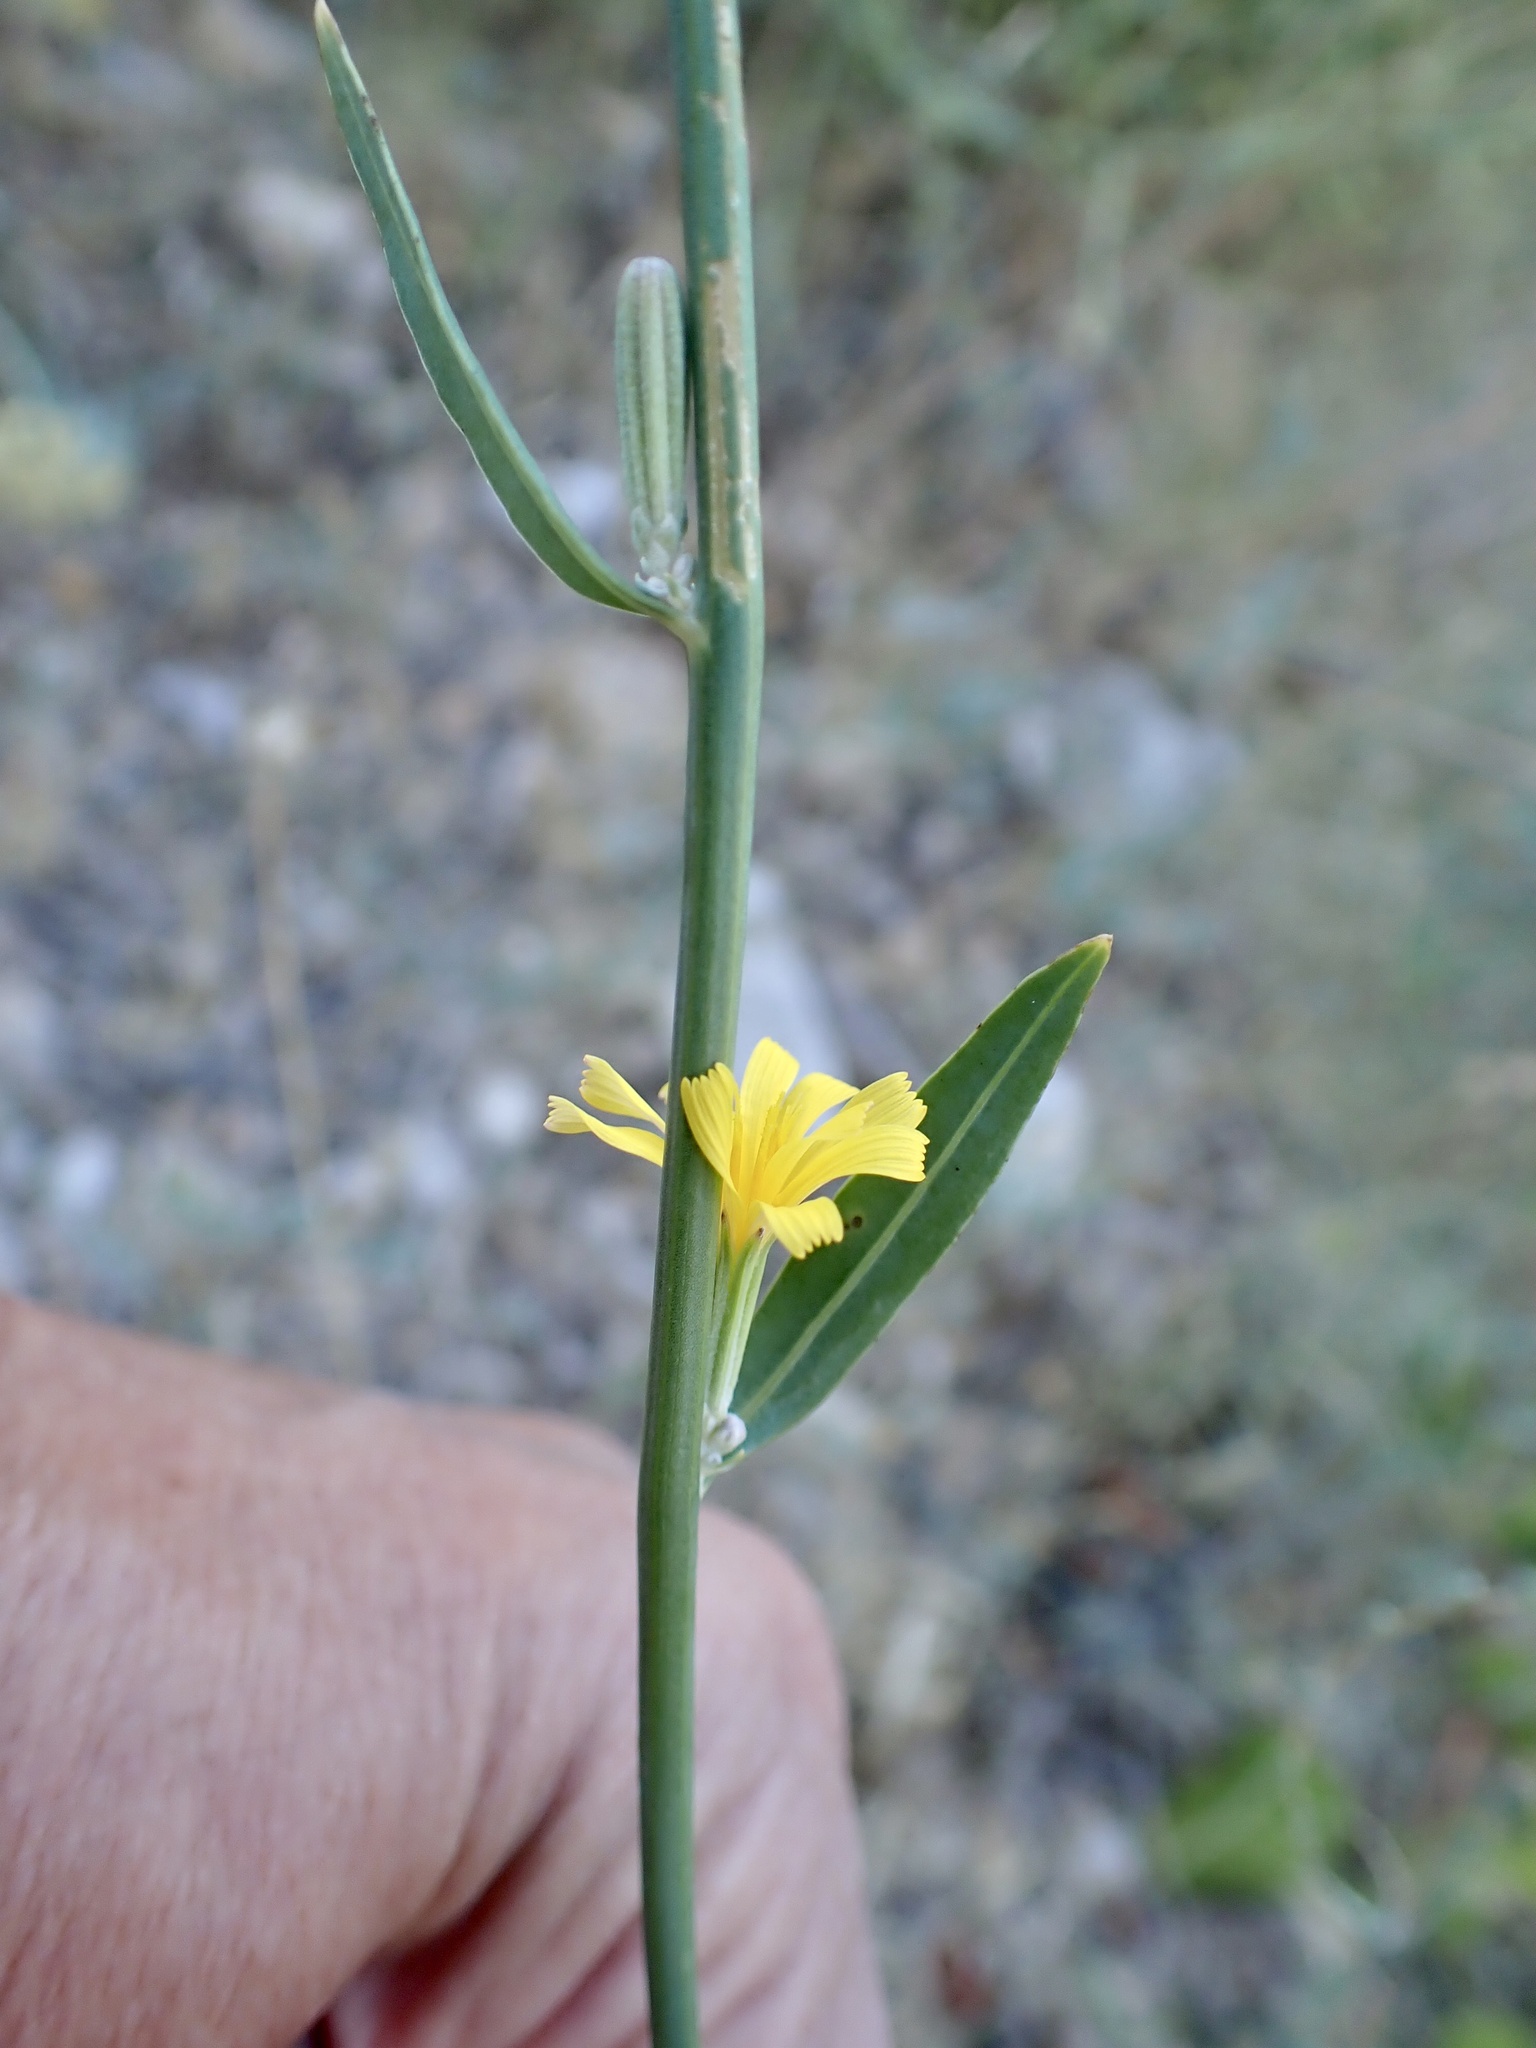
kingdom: Plantae
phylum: Tracheophyta
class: Magnoliopsida
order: Asterales
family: Asteraceae
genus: Chondrilla
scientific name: Chondrilla juncea
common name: Skeleton weed
